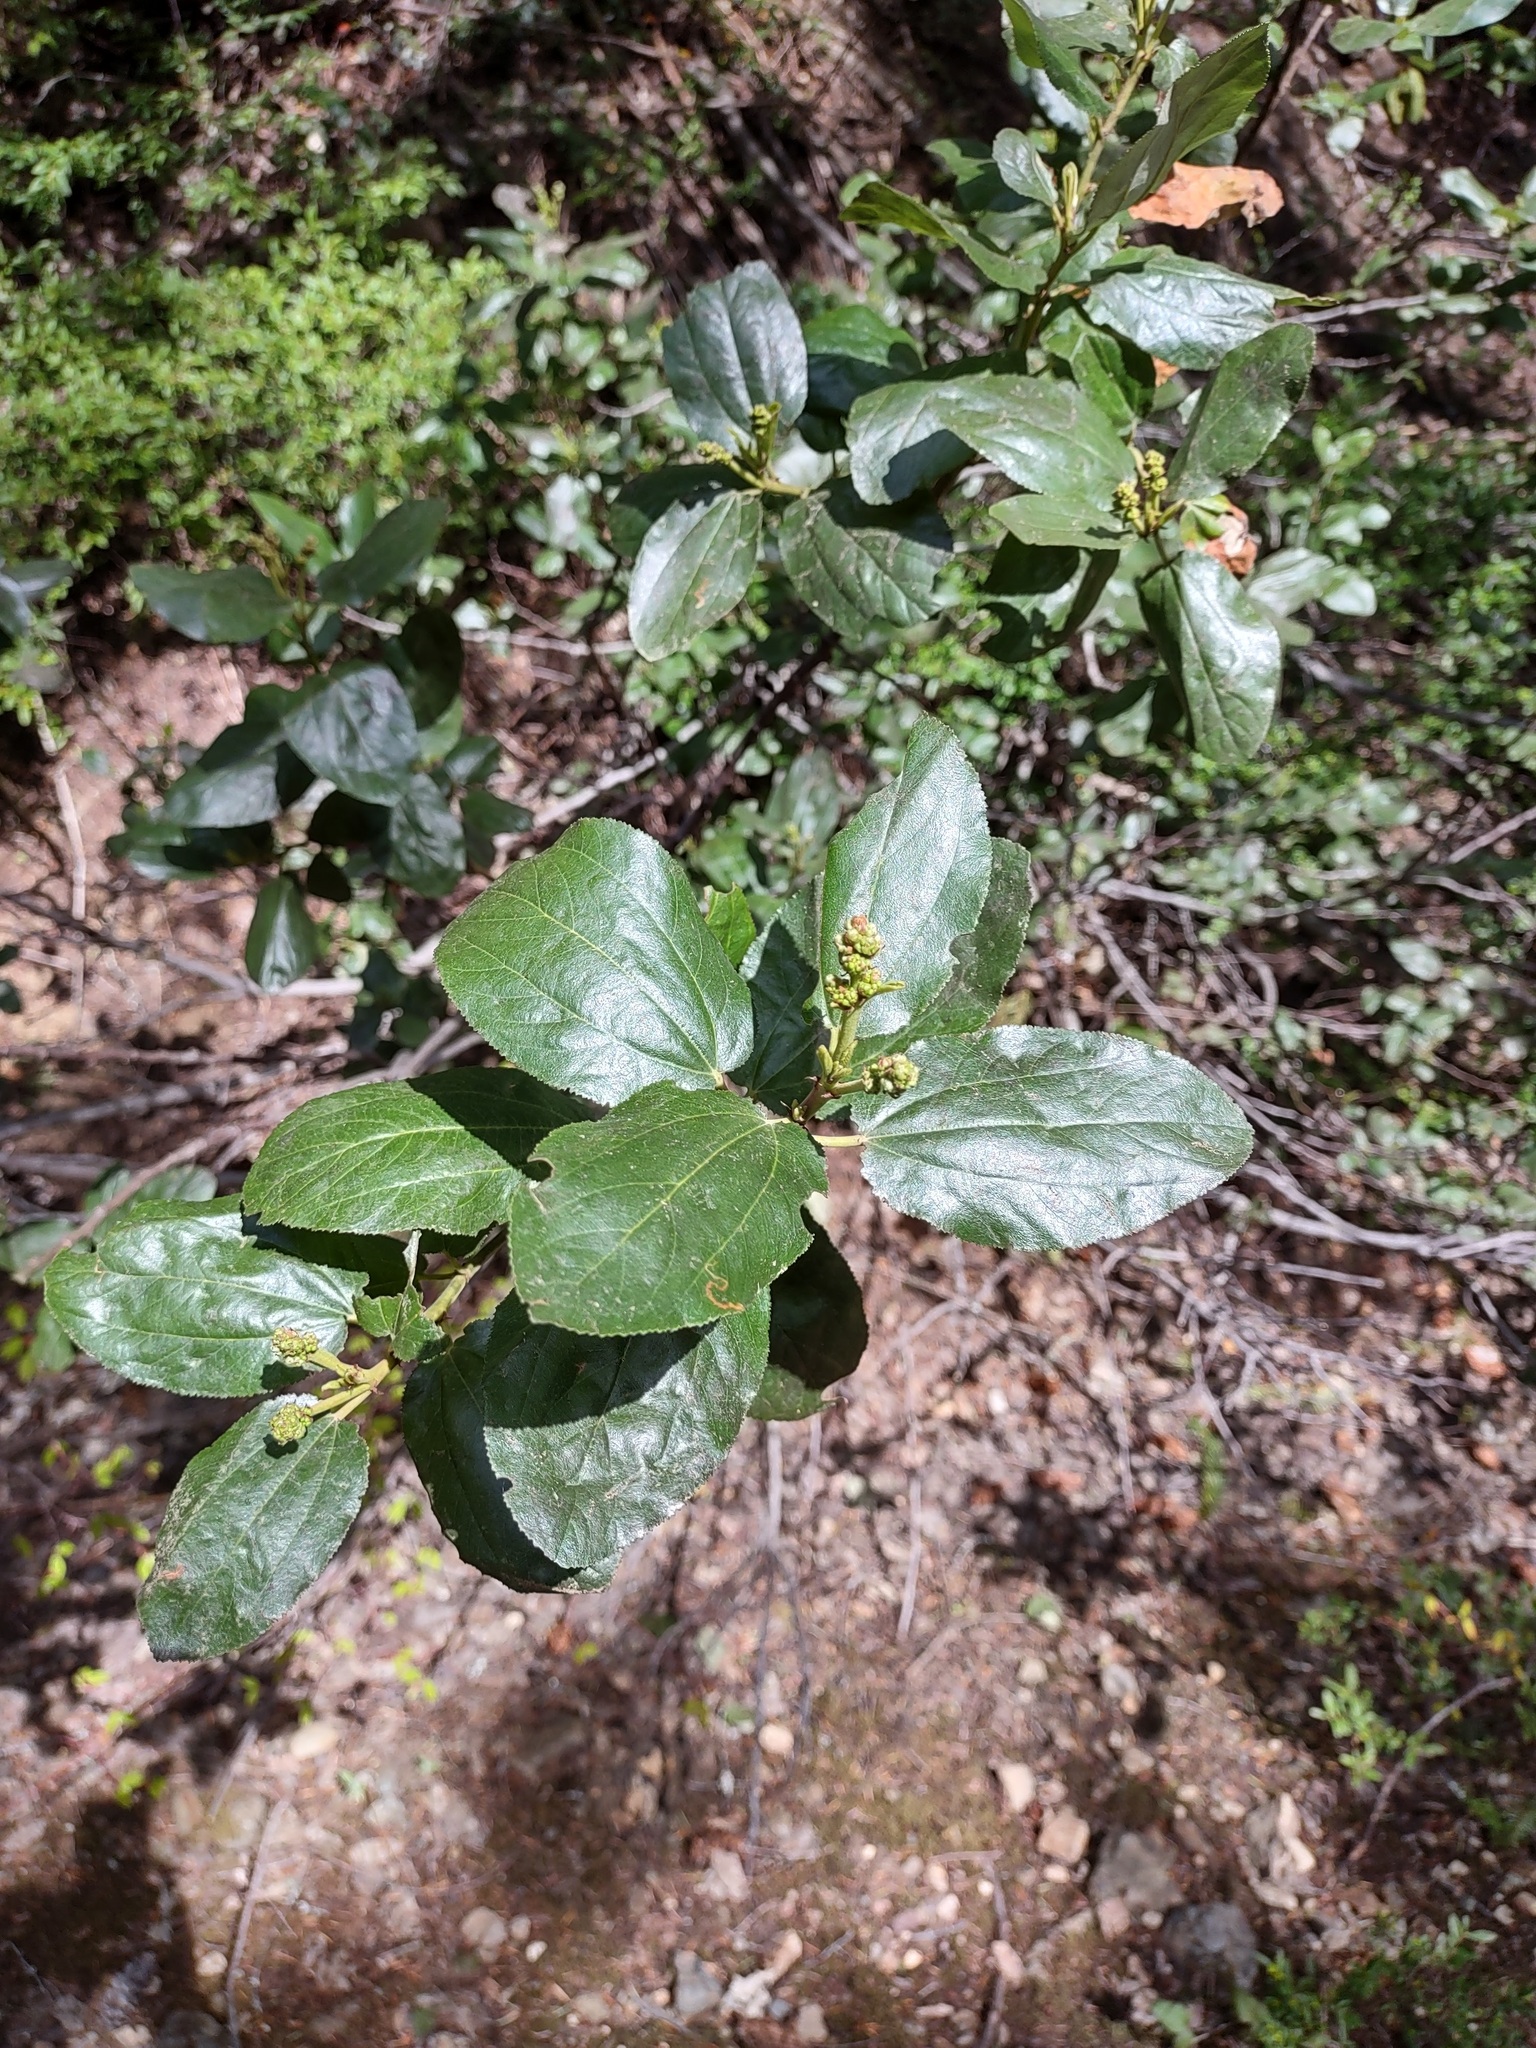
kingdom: Plantae
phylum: Tracheophyta
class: Magnoliopsida
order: Rosales
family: Rhamnaceae
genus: Ceanothus
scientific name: Ceanothus velutinus
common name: Snowbrush
